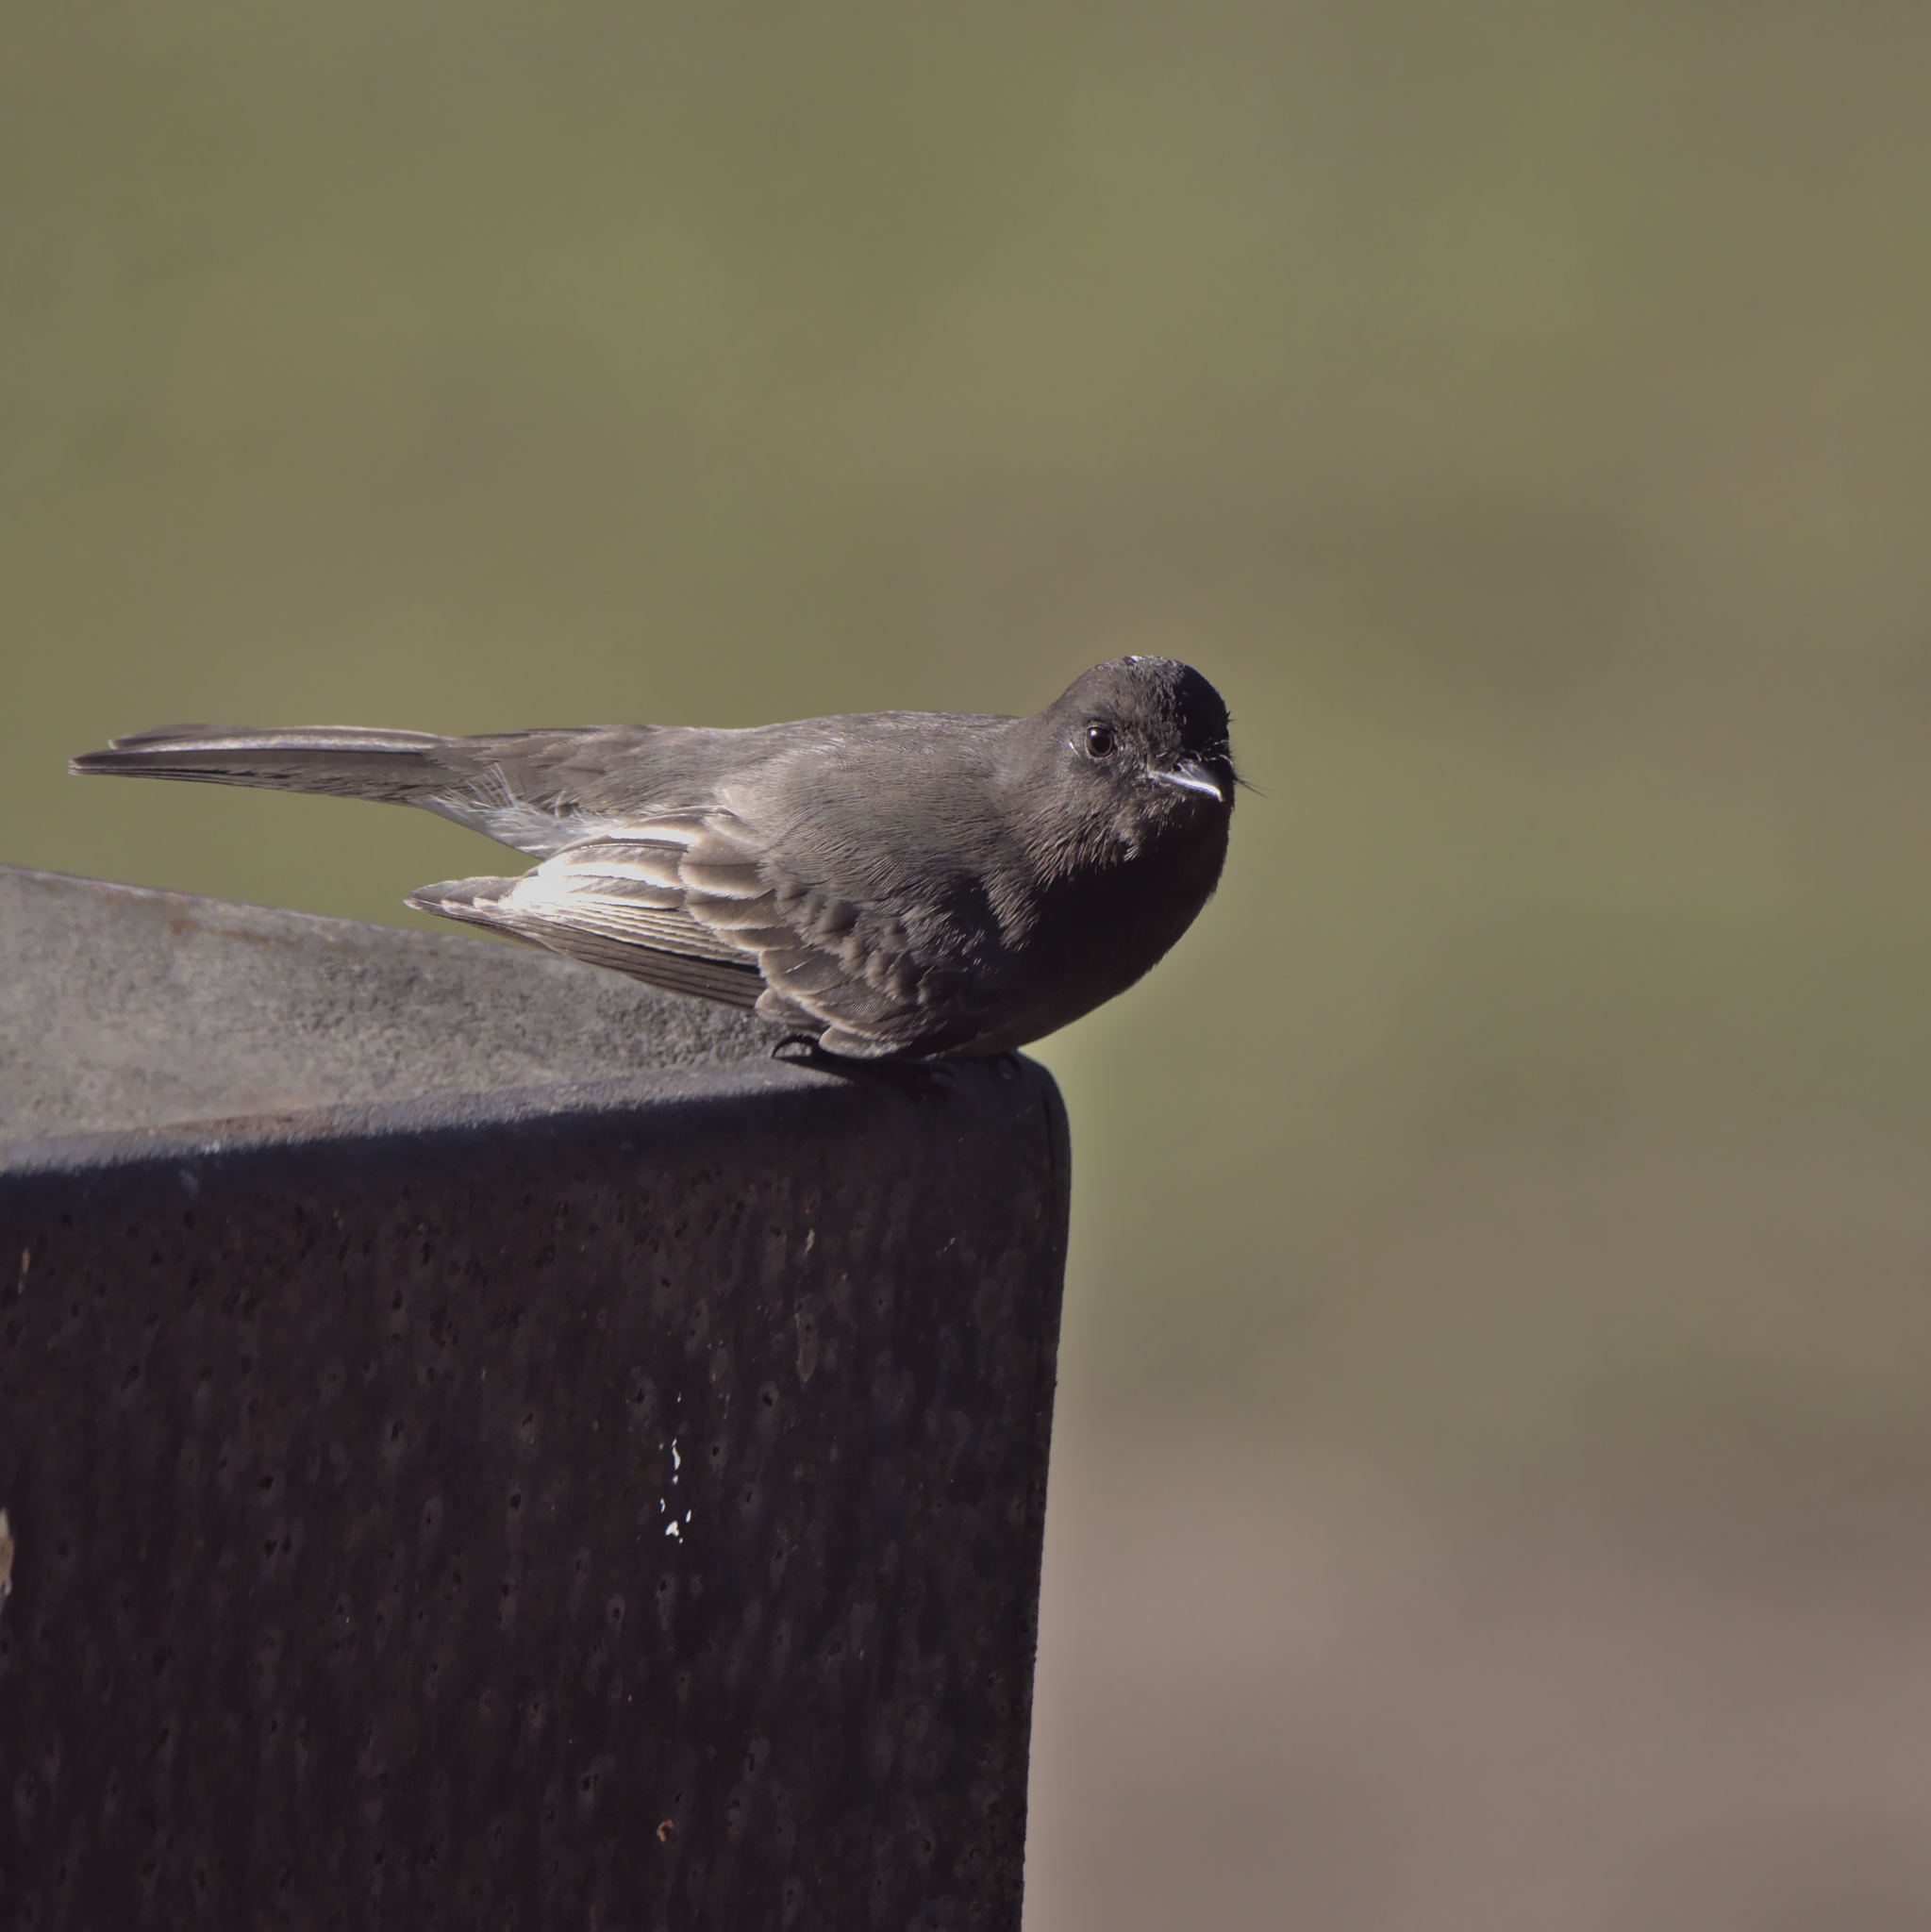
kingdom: Animalia
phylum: Chordata
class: Aves
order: Passeriformes
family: Tyrannidae
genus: Sayornis
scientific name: Sayornis nigricans
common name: Black phoebe
